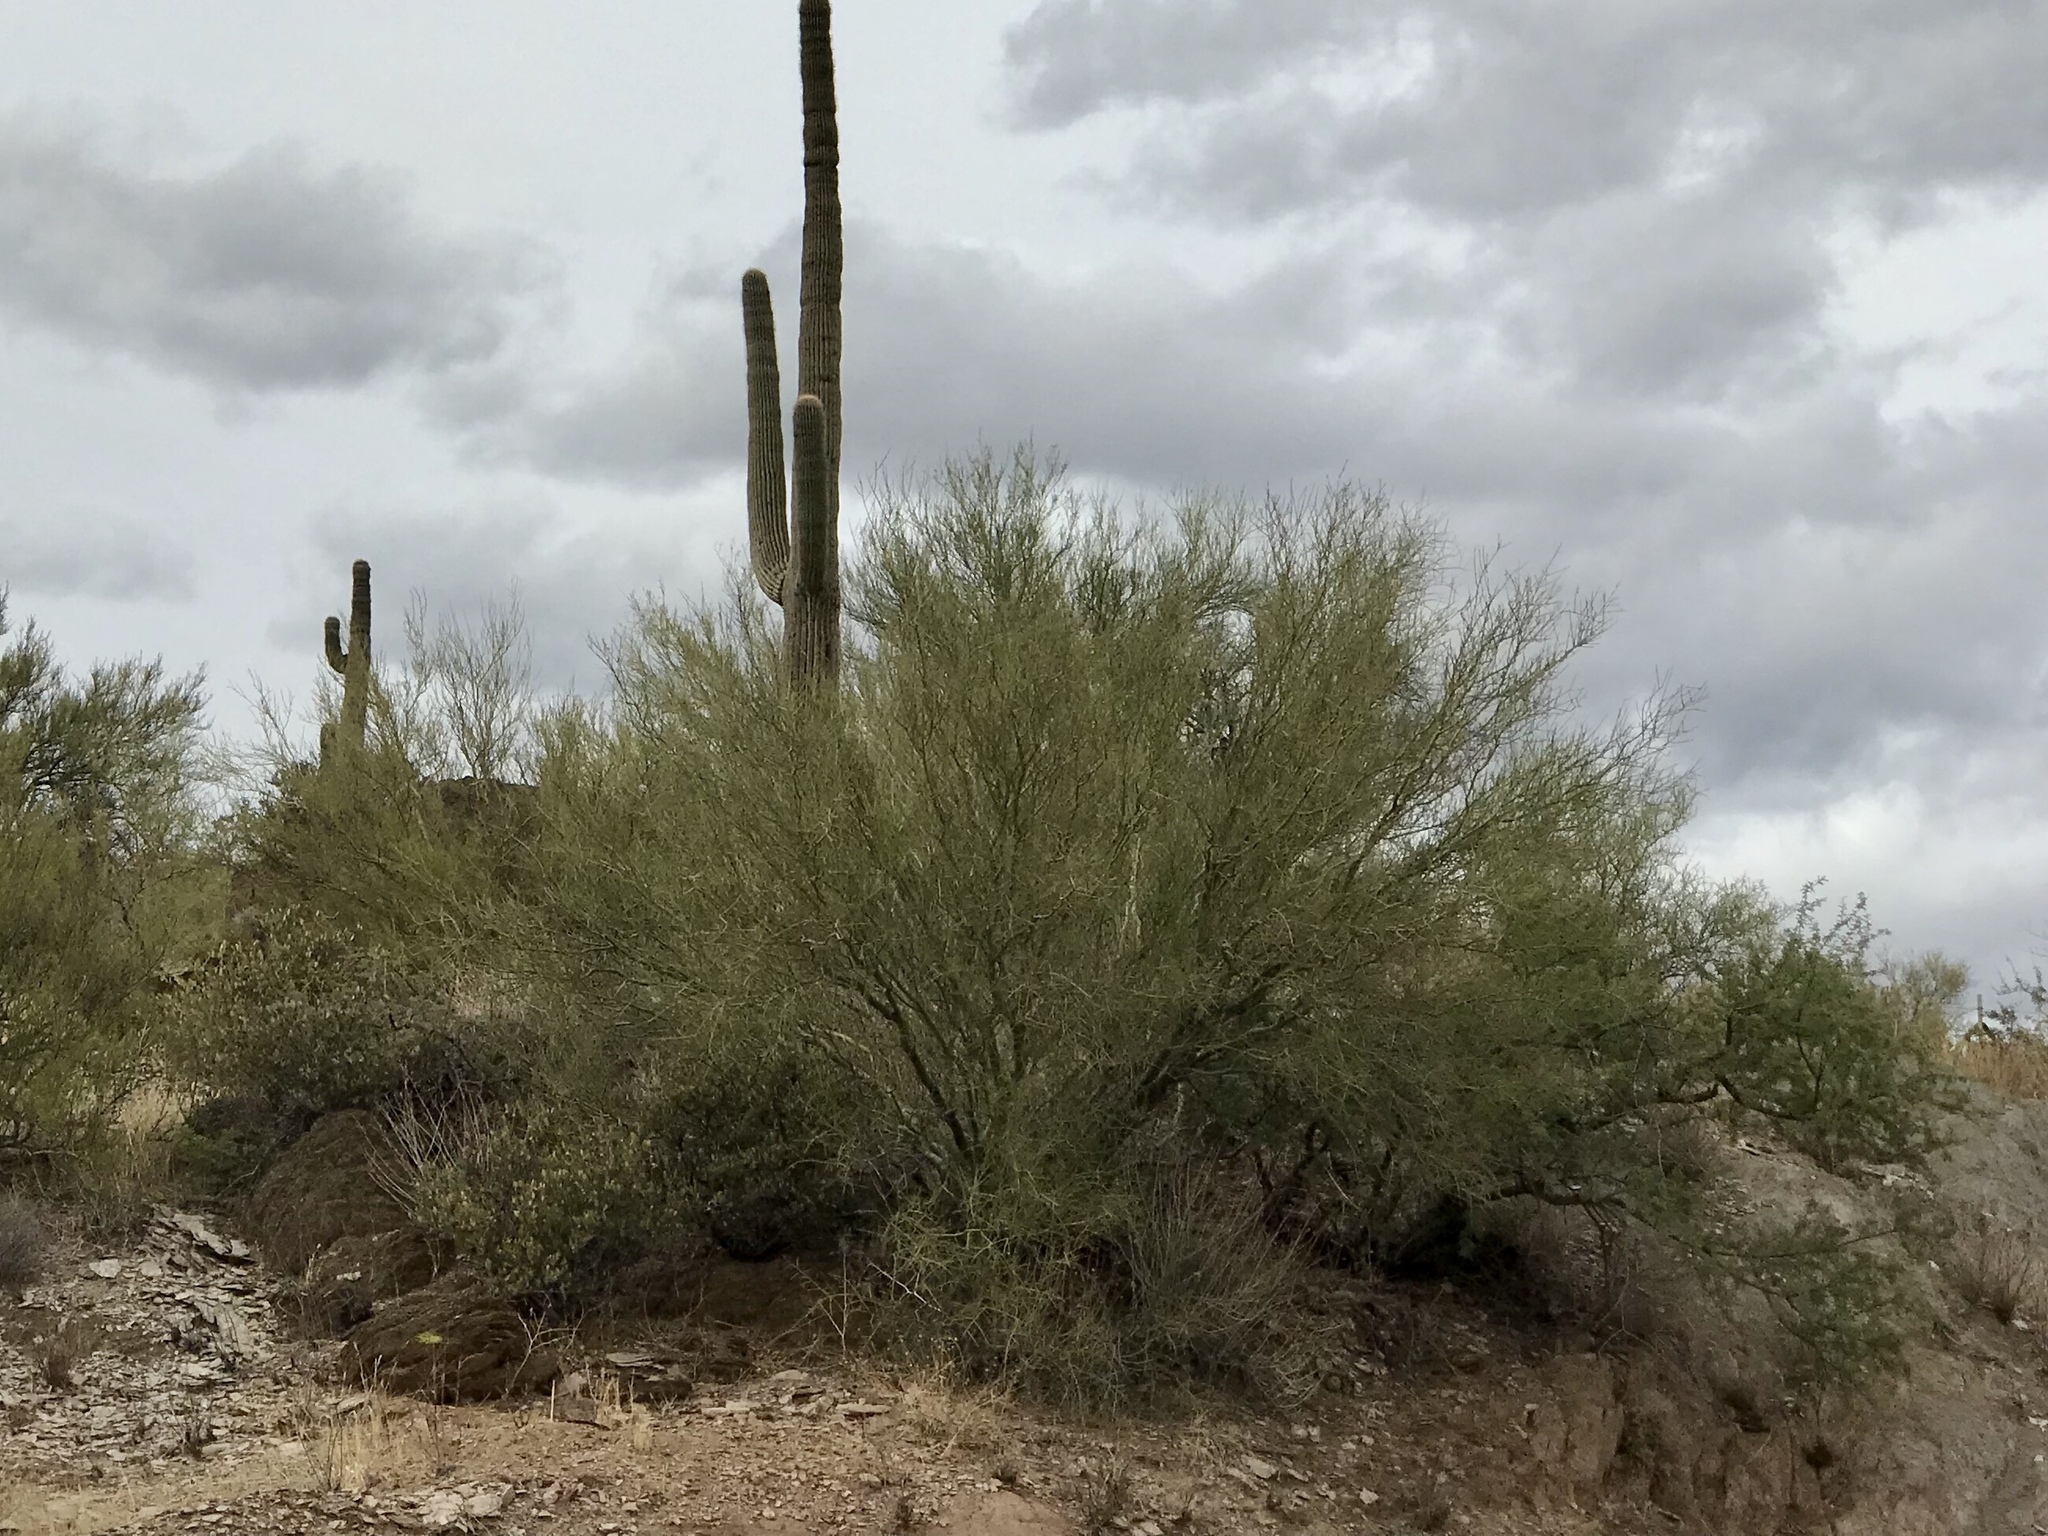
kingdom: Plantae
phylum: Tracheophyta
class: Magnoliopsida
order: Fabales
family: Fabaceae
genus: Parkinsonia
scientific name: Parkinsonia florida
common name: Blue paloverde
